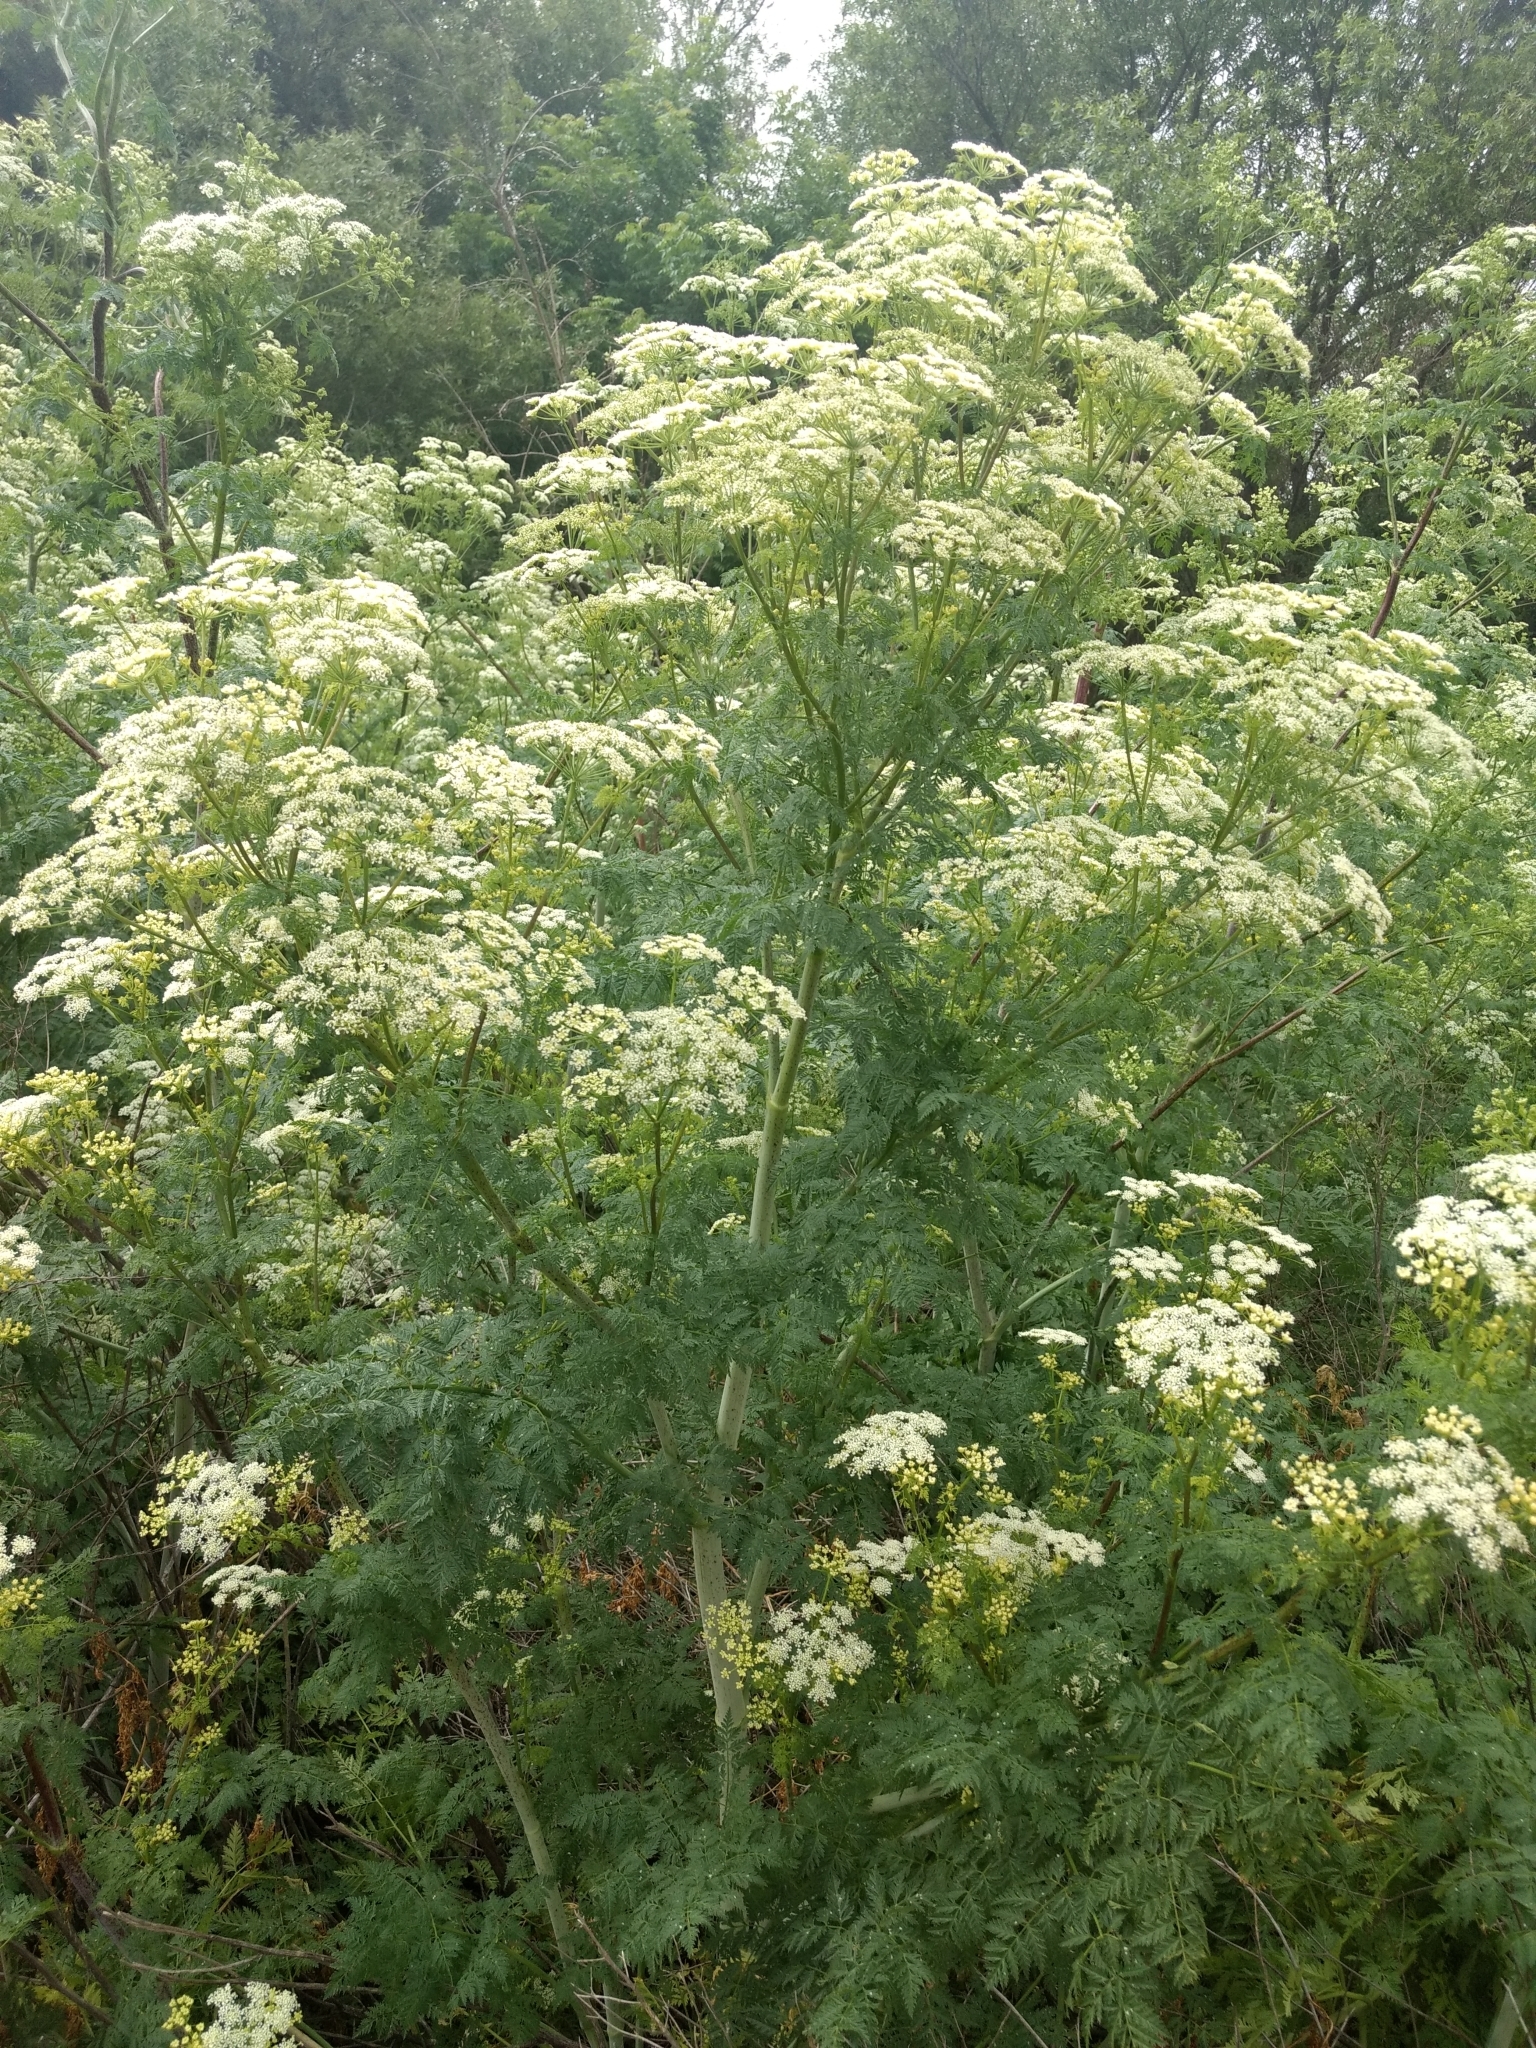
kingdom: Plantae
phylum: Tracheophyta
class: Magnoliopsida
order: Apiales
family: Apiaceae
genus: Conium
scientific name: Conium maculatum
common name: Hemlock
